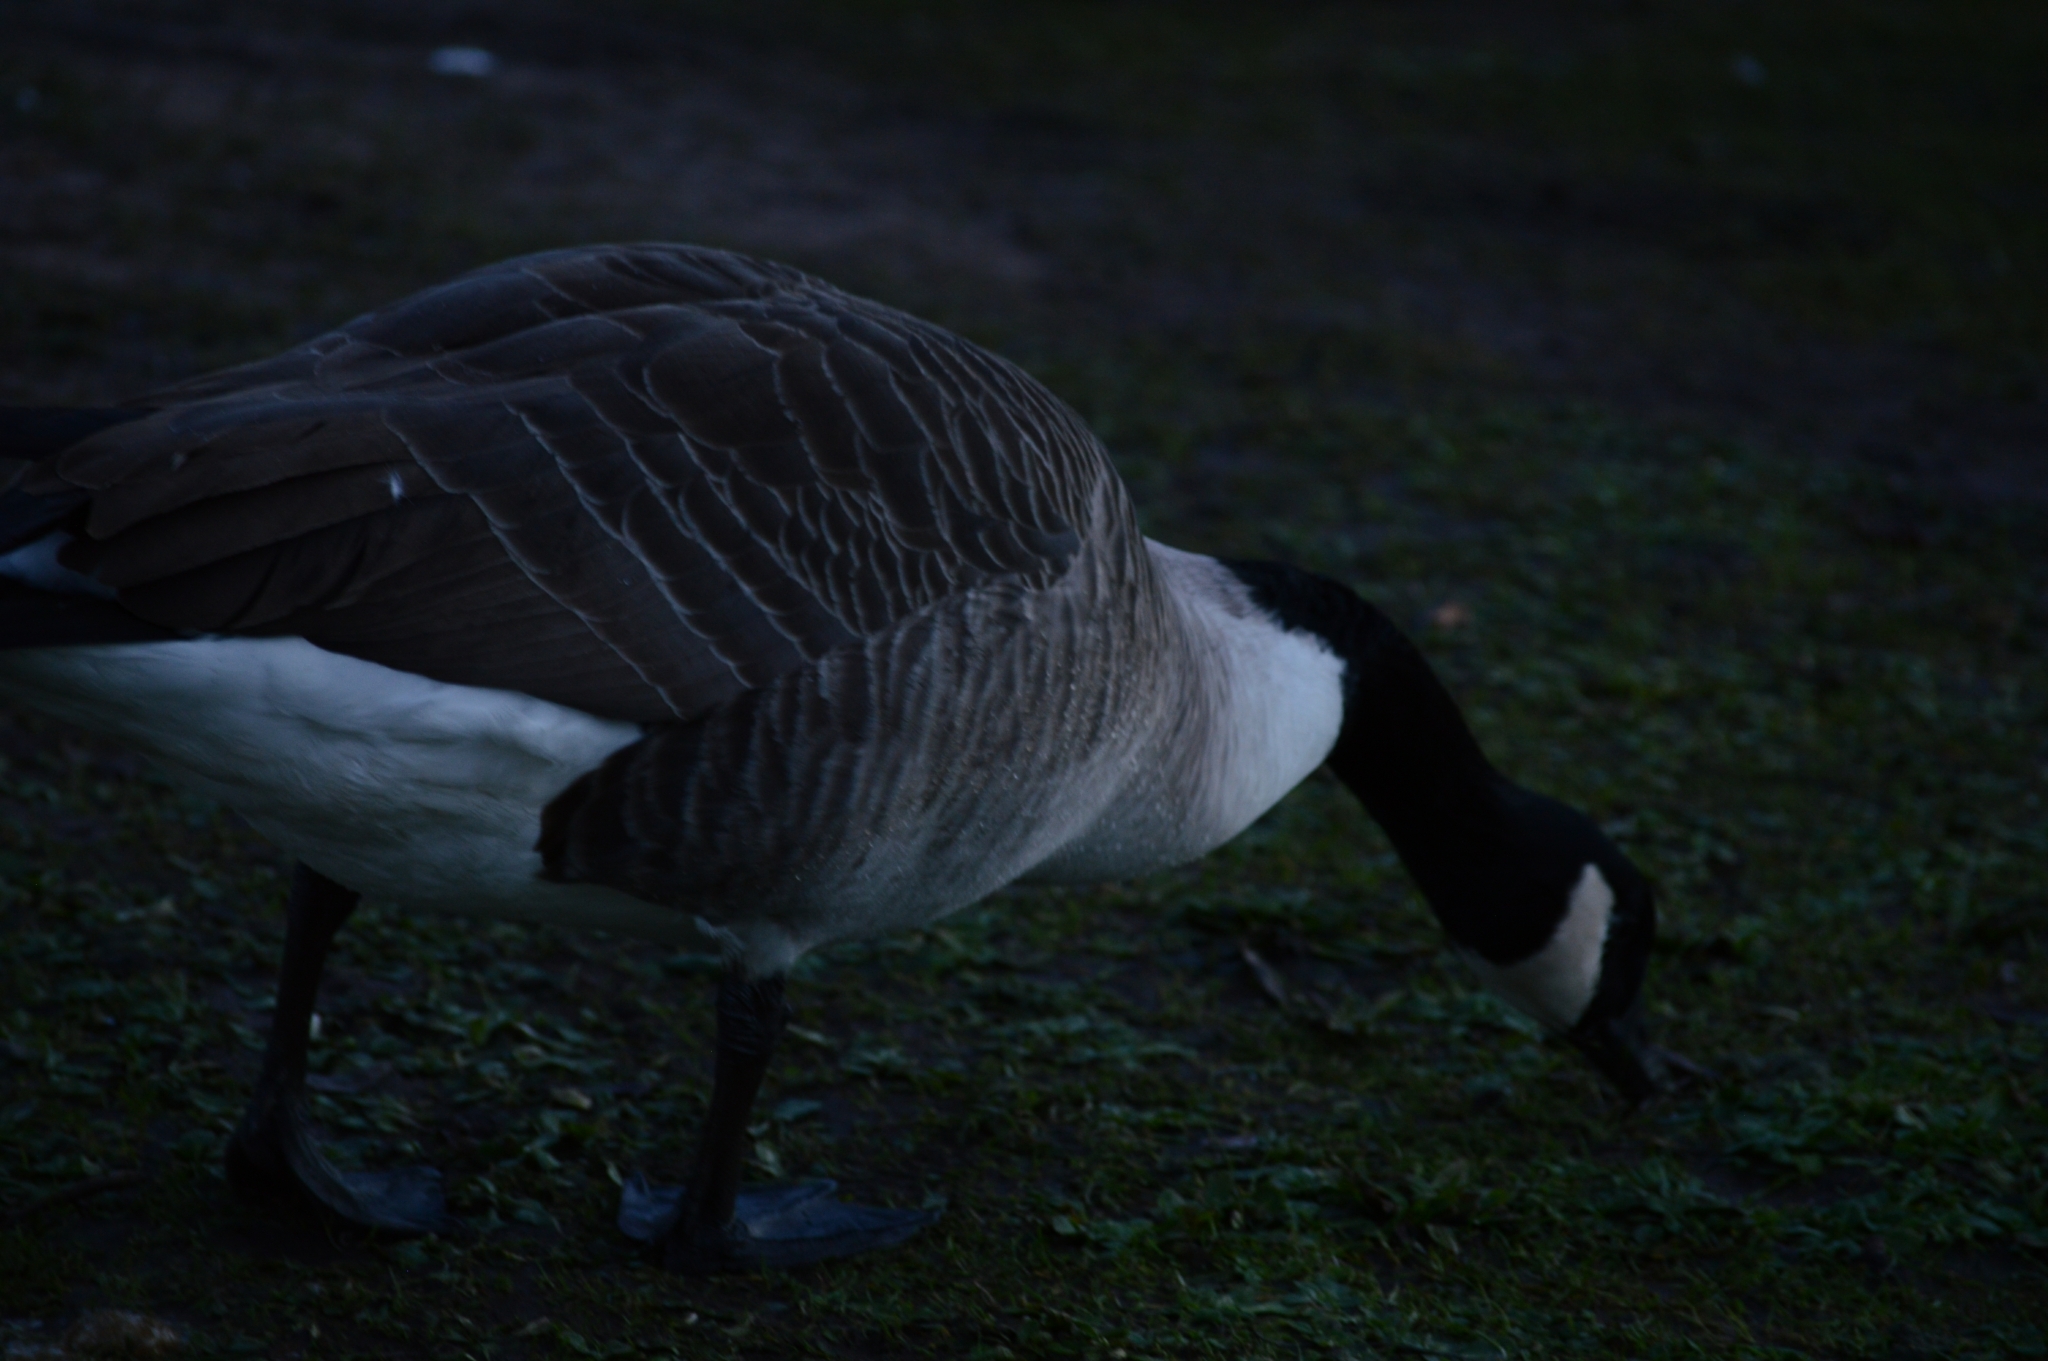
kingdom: Animalia
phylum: Chordata
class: Aves
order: Anseriformes
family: Anatidae
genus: Branta
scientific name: Branta canadensis
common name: Canada goose
